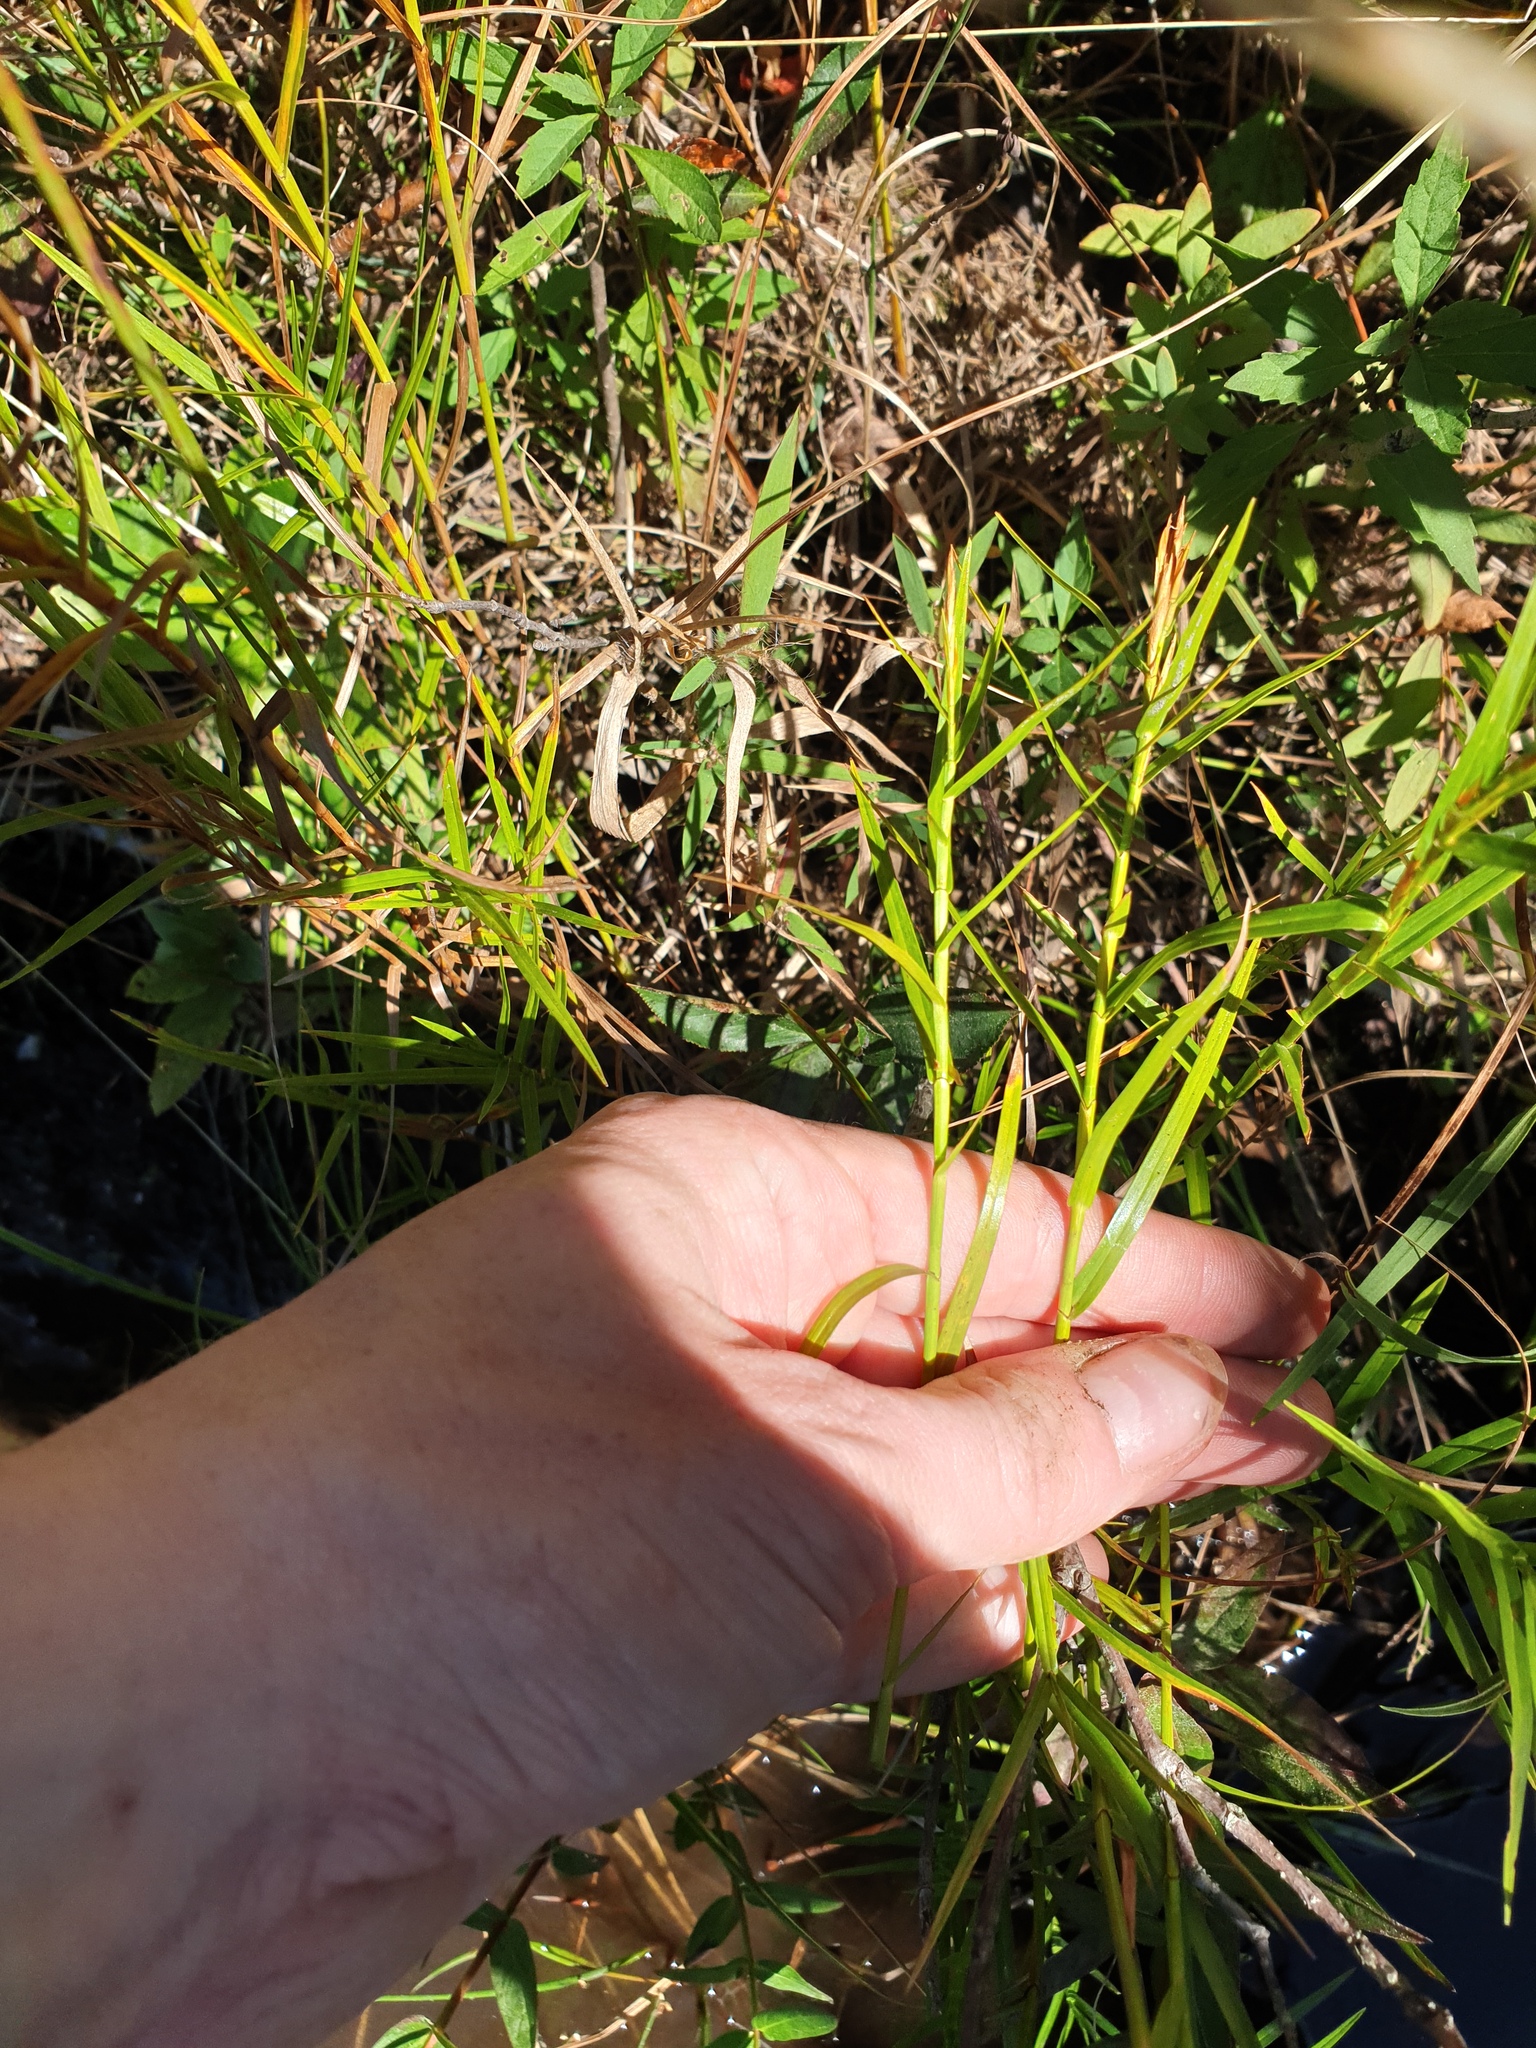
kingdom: Plantae
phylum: Tracheophyta
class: Liliopsida
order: Poales
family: Cyperaceae
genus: Dulichium
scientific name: Dulichium arundinaceum
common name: Three-way sedge
